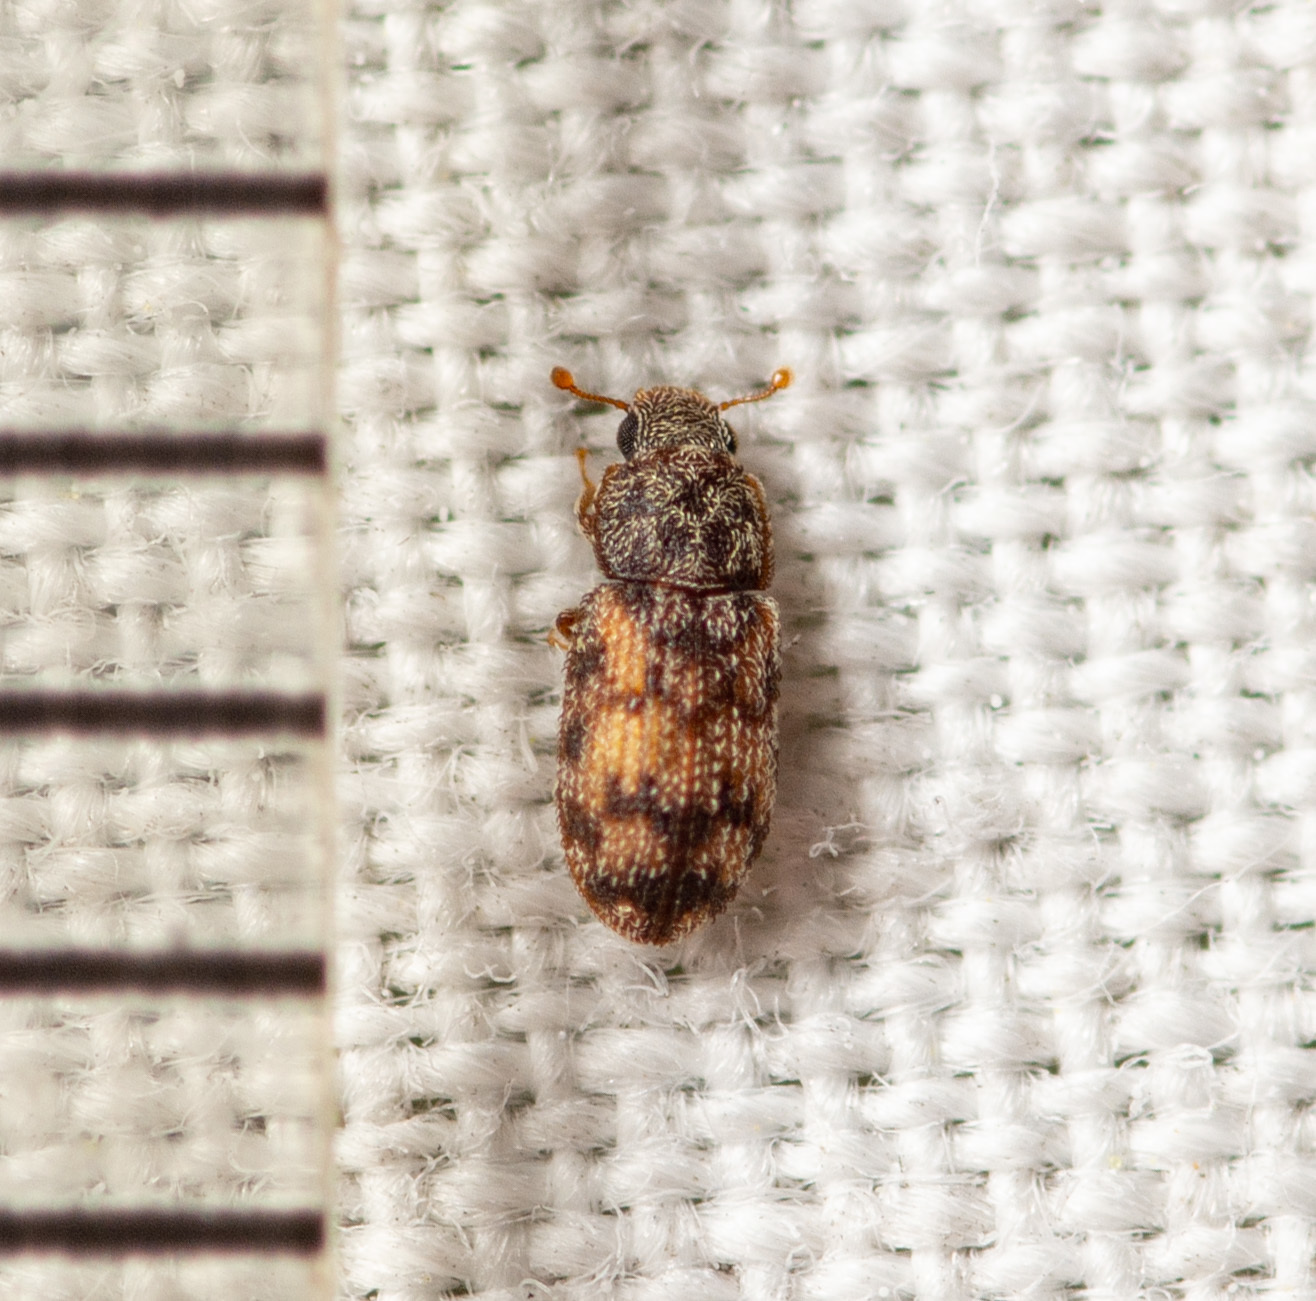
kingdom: Animalia
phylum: Arthropoda
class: Insecta
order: Coleoptera
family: Zopheridae
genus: Synchita
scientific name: Synchita
